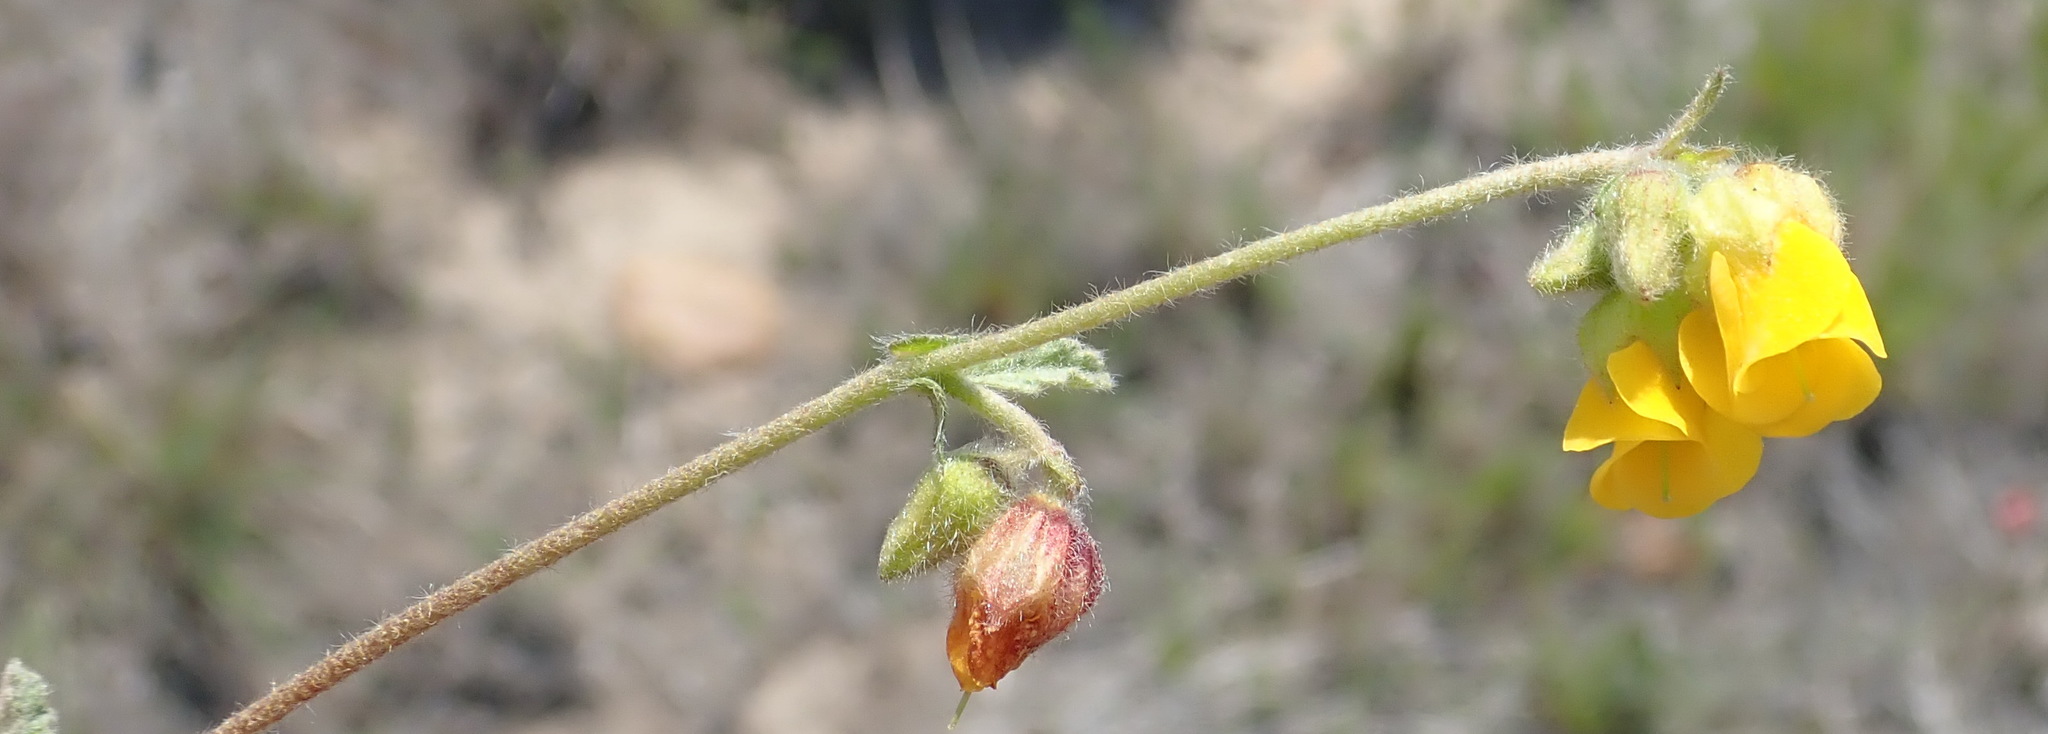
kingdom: Plantae
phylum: Tracheophyta
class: Magnoliopsida
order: Malvales
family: Malvaceae
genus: Hermannia
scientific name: Hermannia althaeifolia
